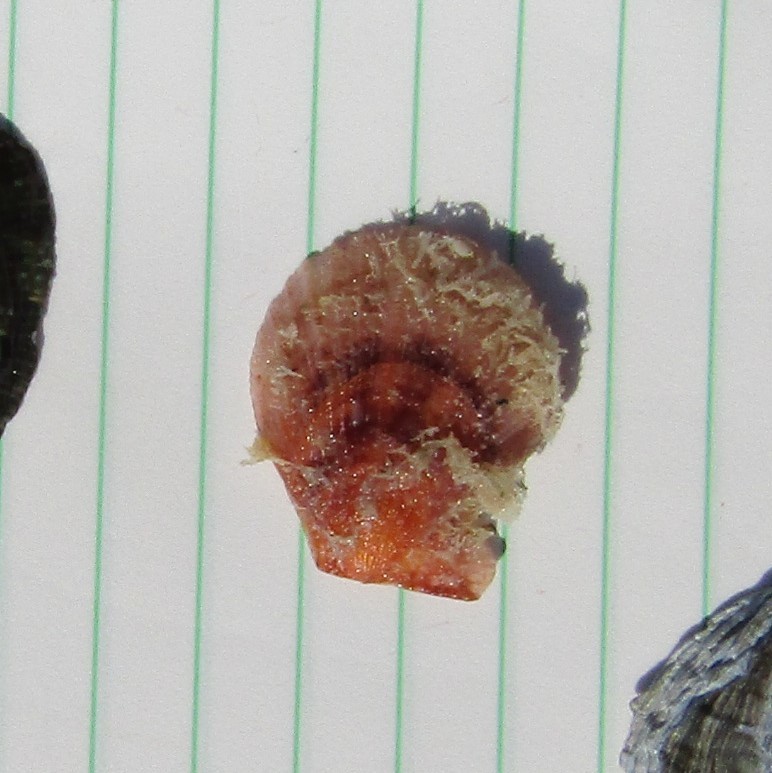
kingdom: Animalia
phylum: Mollusca
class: Bivalvia
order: Pectinida
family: Pectinidae
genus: Talochlamys
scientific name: Talochlamys zelandiae
